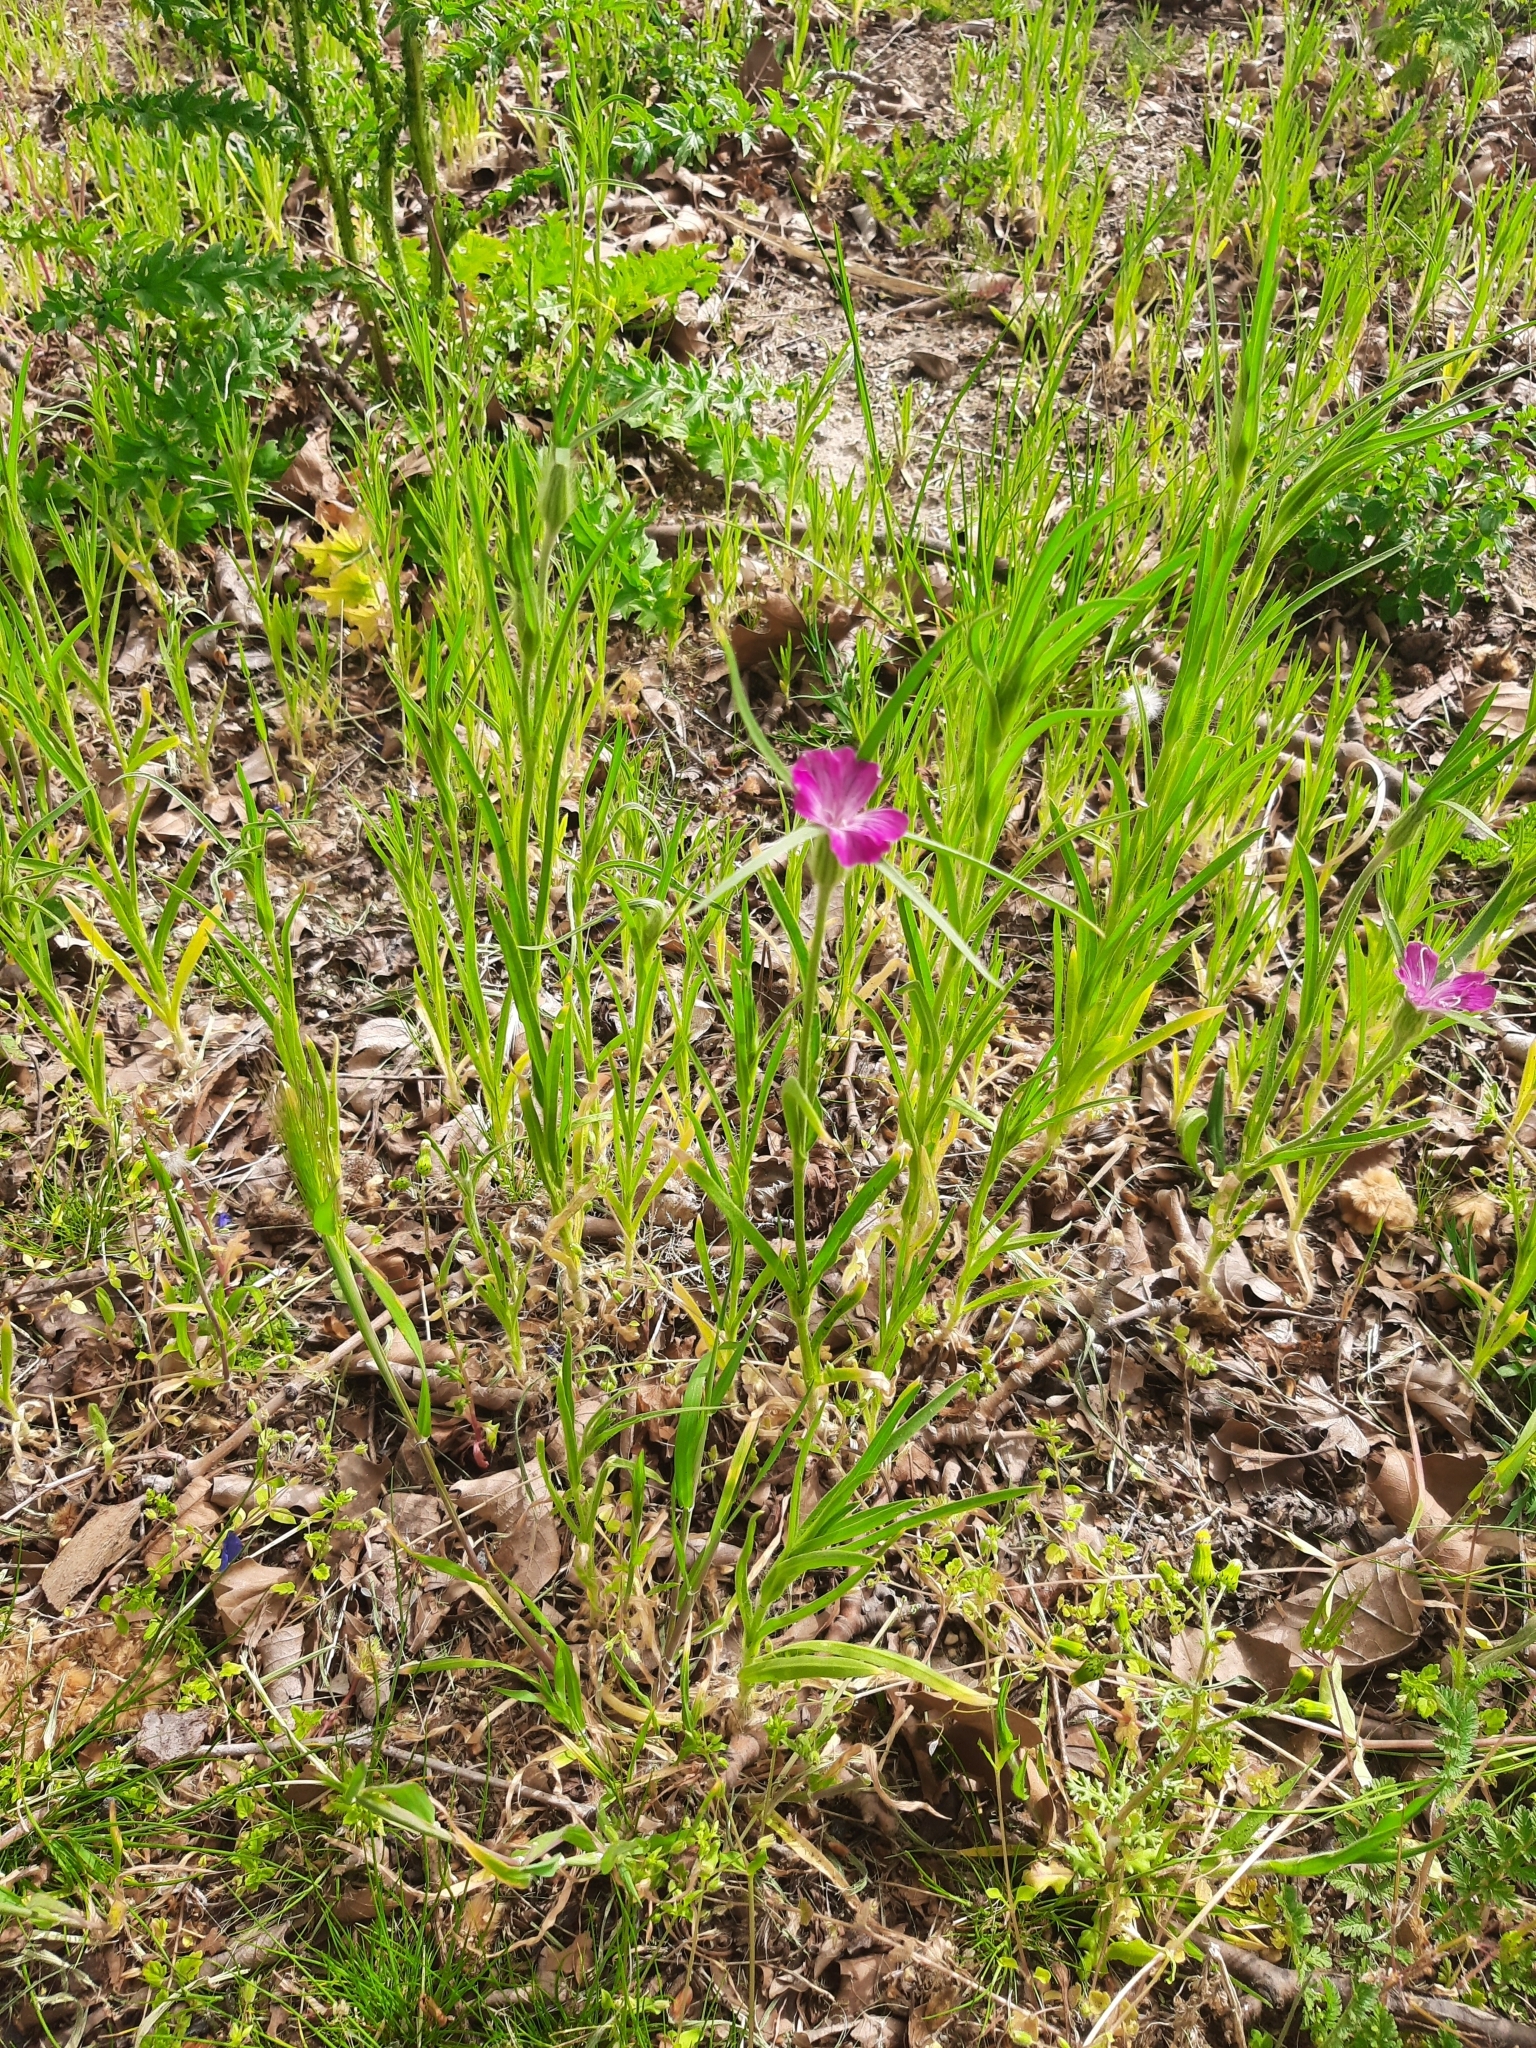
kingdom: Plantae
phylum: Tracheophyta
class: Magnoliopsida
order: Caryophyllales
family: Caryophyllaceae
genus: Agrostemma
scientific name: Agrostemma githago
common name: Common corncockle
